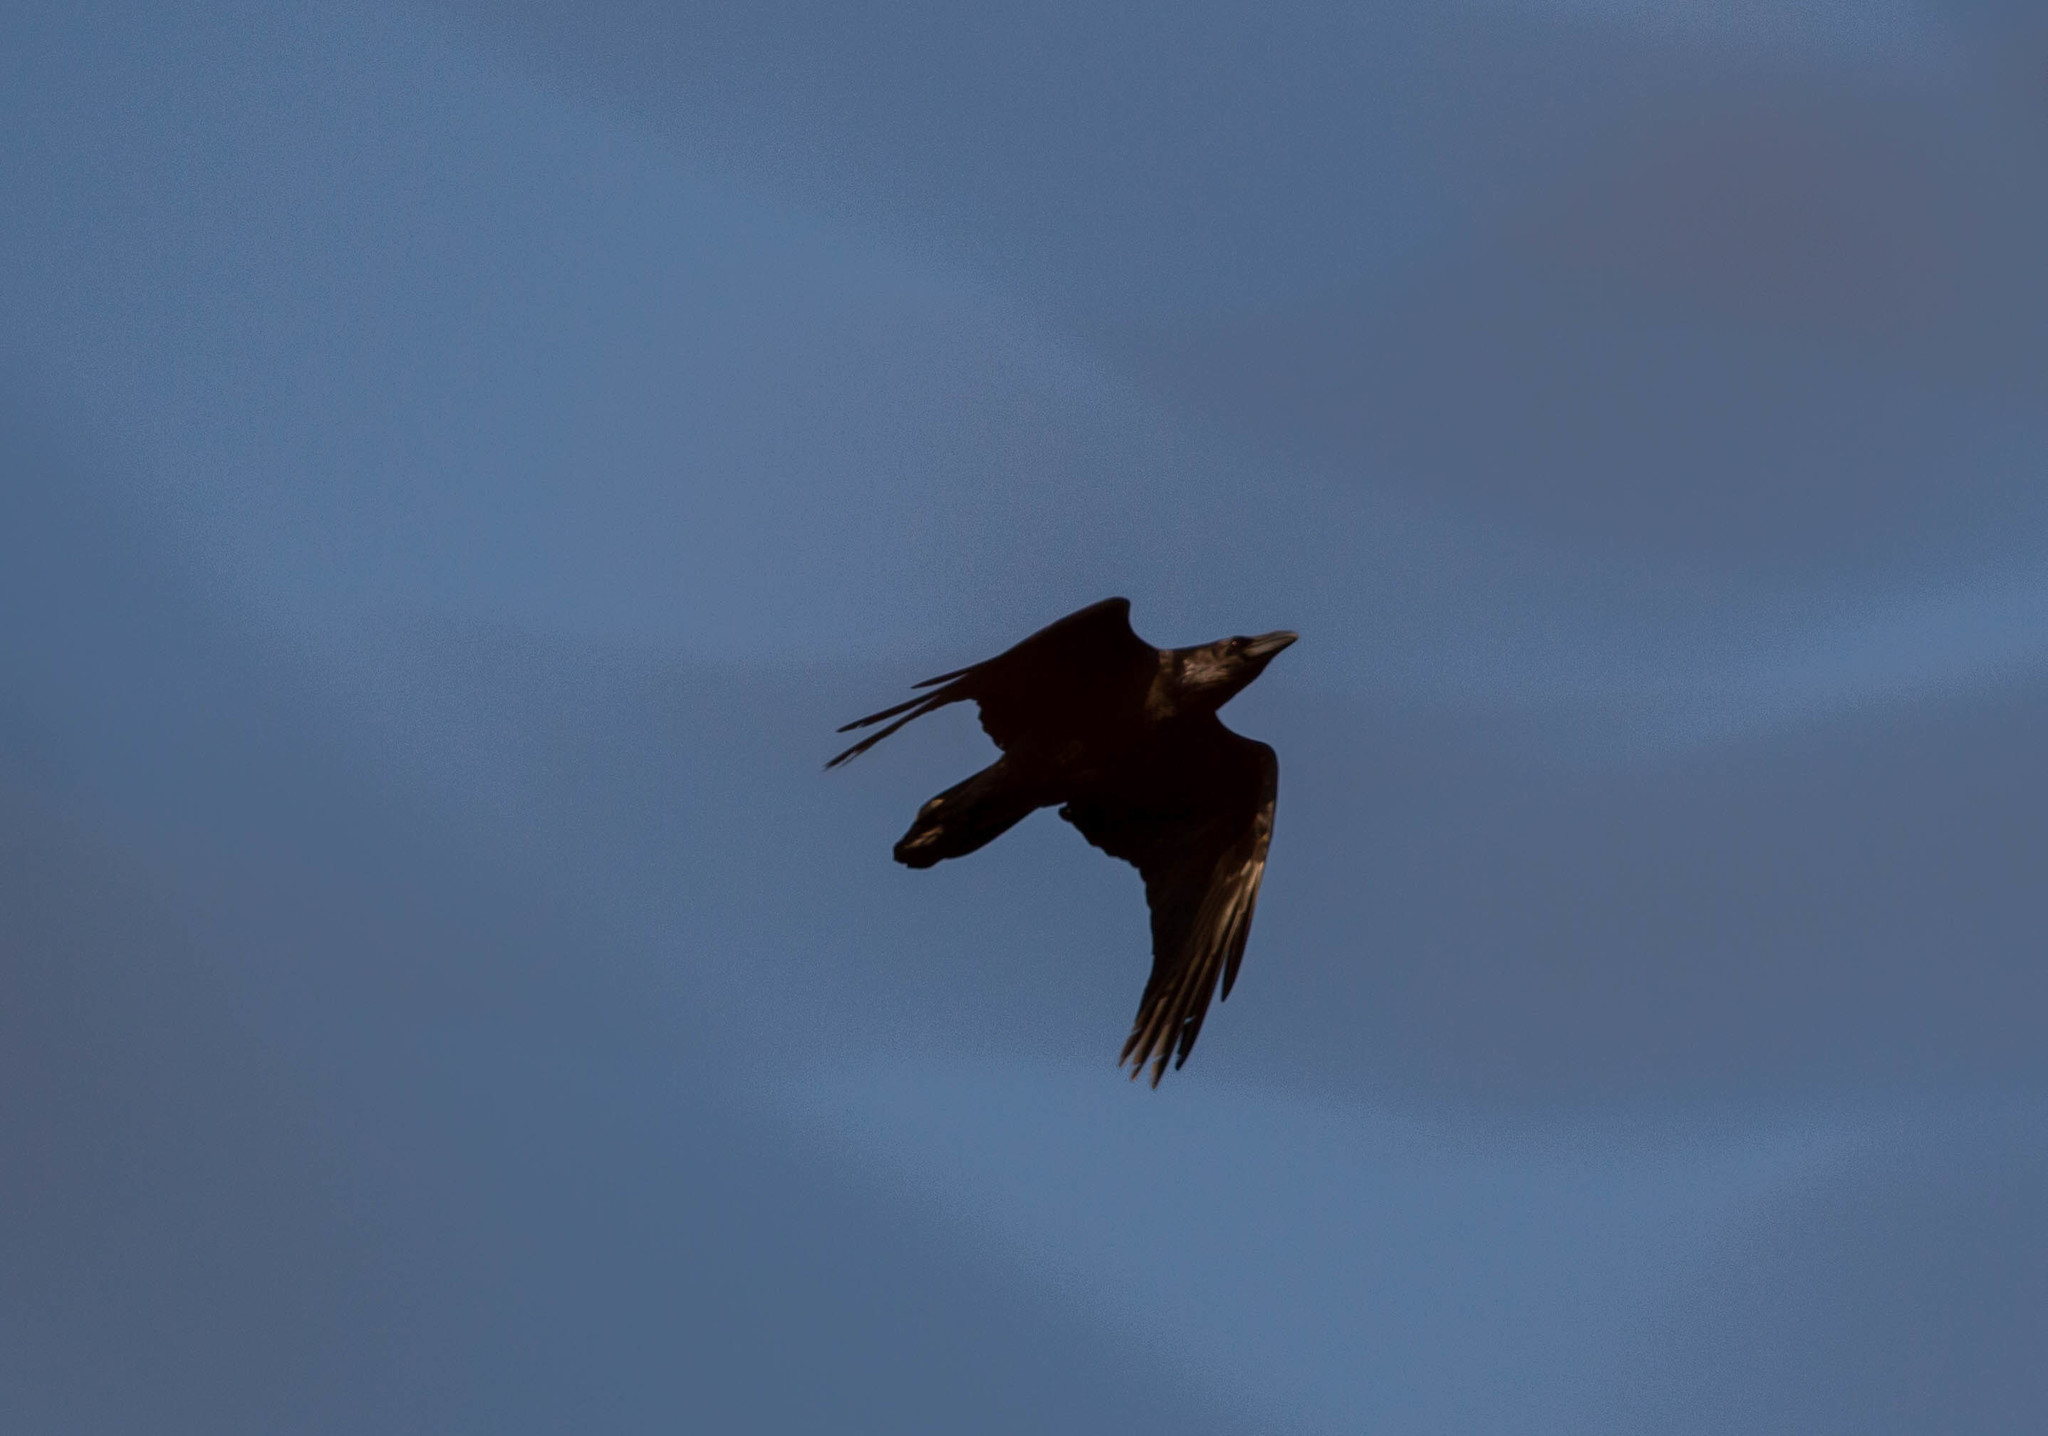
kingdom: Animalia
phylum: Chordata
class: Aves
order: Passeriformes
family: Corvidae
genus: Corvus
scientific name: Corvus corax
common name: Common raven
